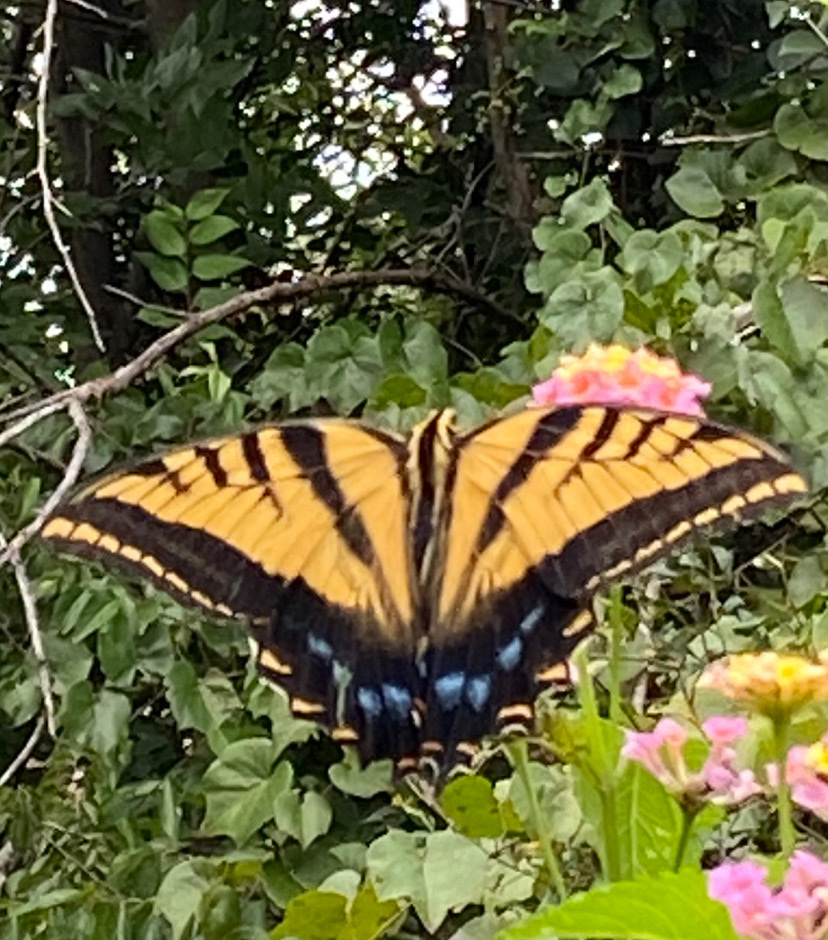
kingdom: Animalia
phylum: Arthropoda
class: Insecta
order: Lepidoptera
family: Papilionidae
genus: Papilio
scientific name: Papilio multicaudata
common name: Two-tailed tiger swallowtail
